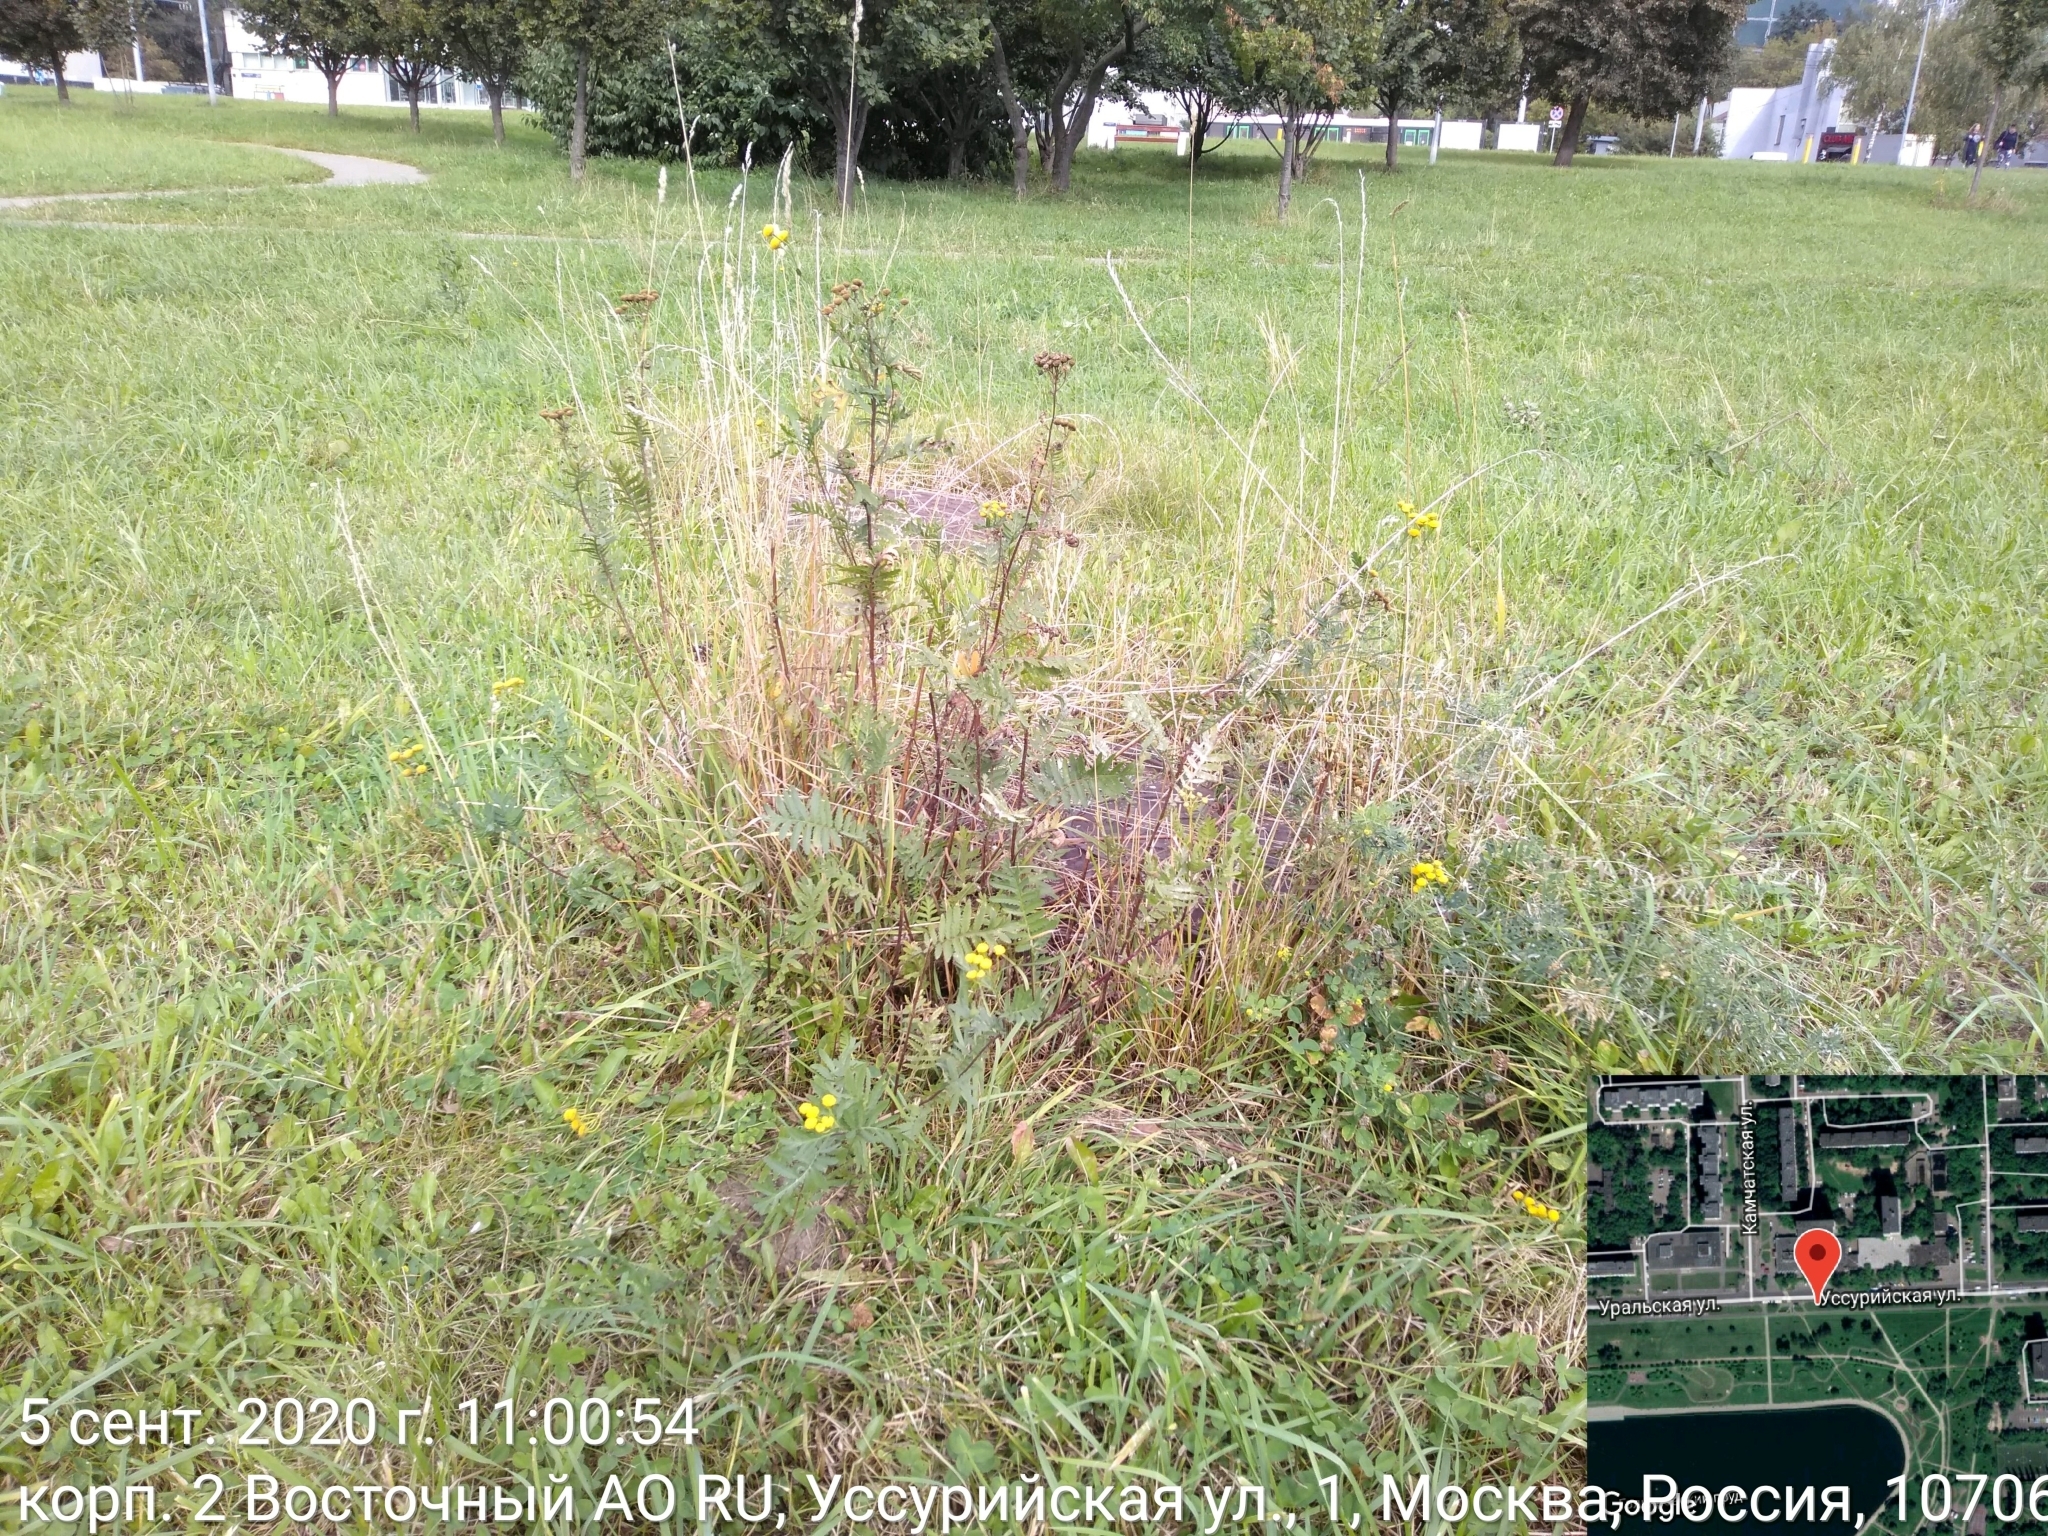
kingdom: Plantae
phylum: Tracheophyta
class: Magnoliopsida
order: Asterales
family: Asteraceae
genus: Tanacetum
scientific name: Tanacetum vulgare
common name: Common tansy
